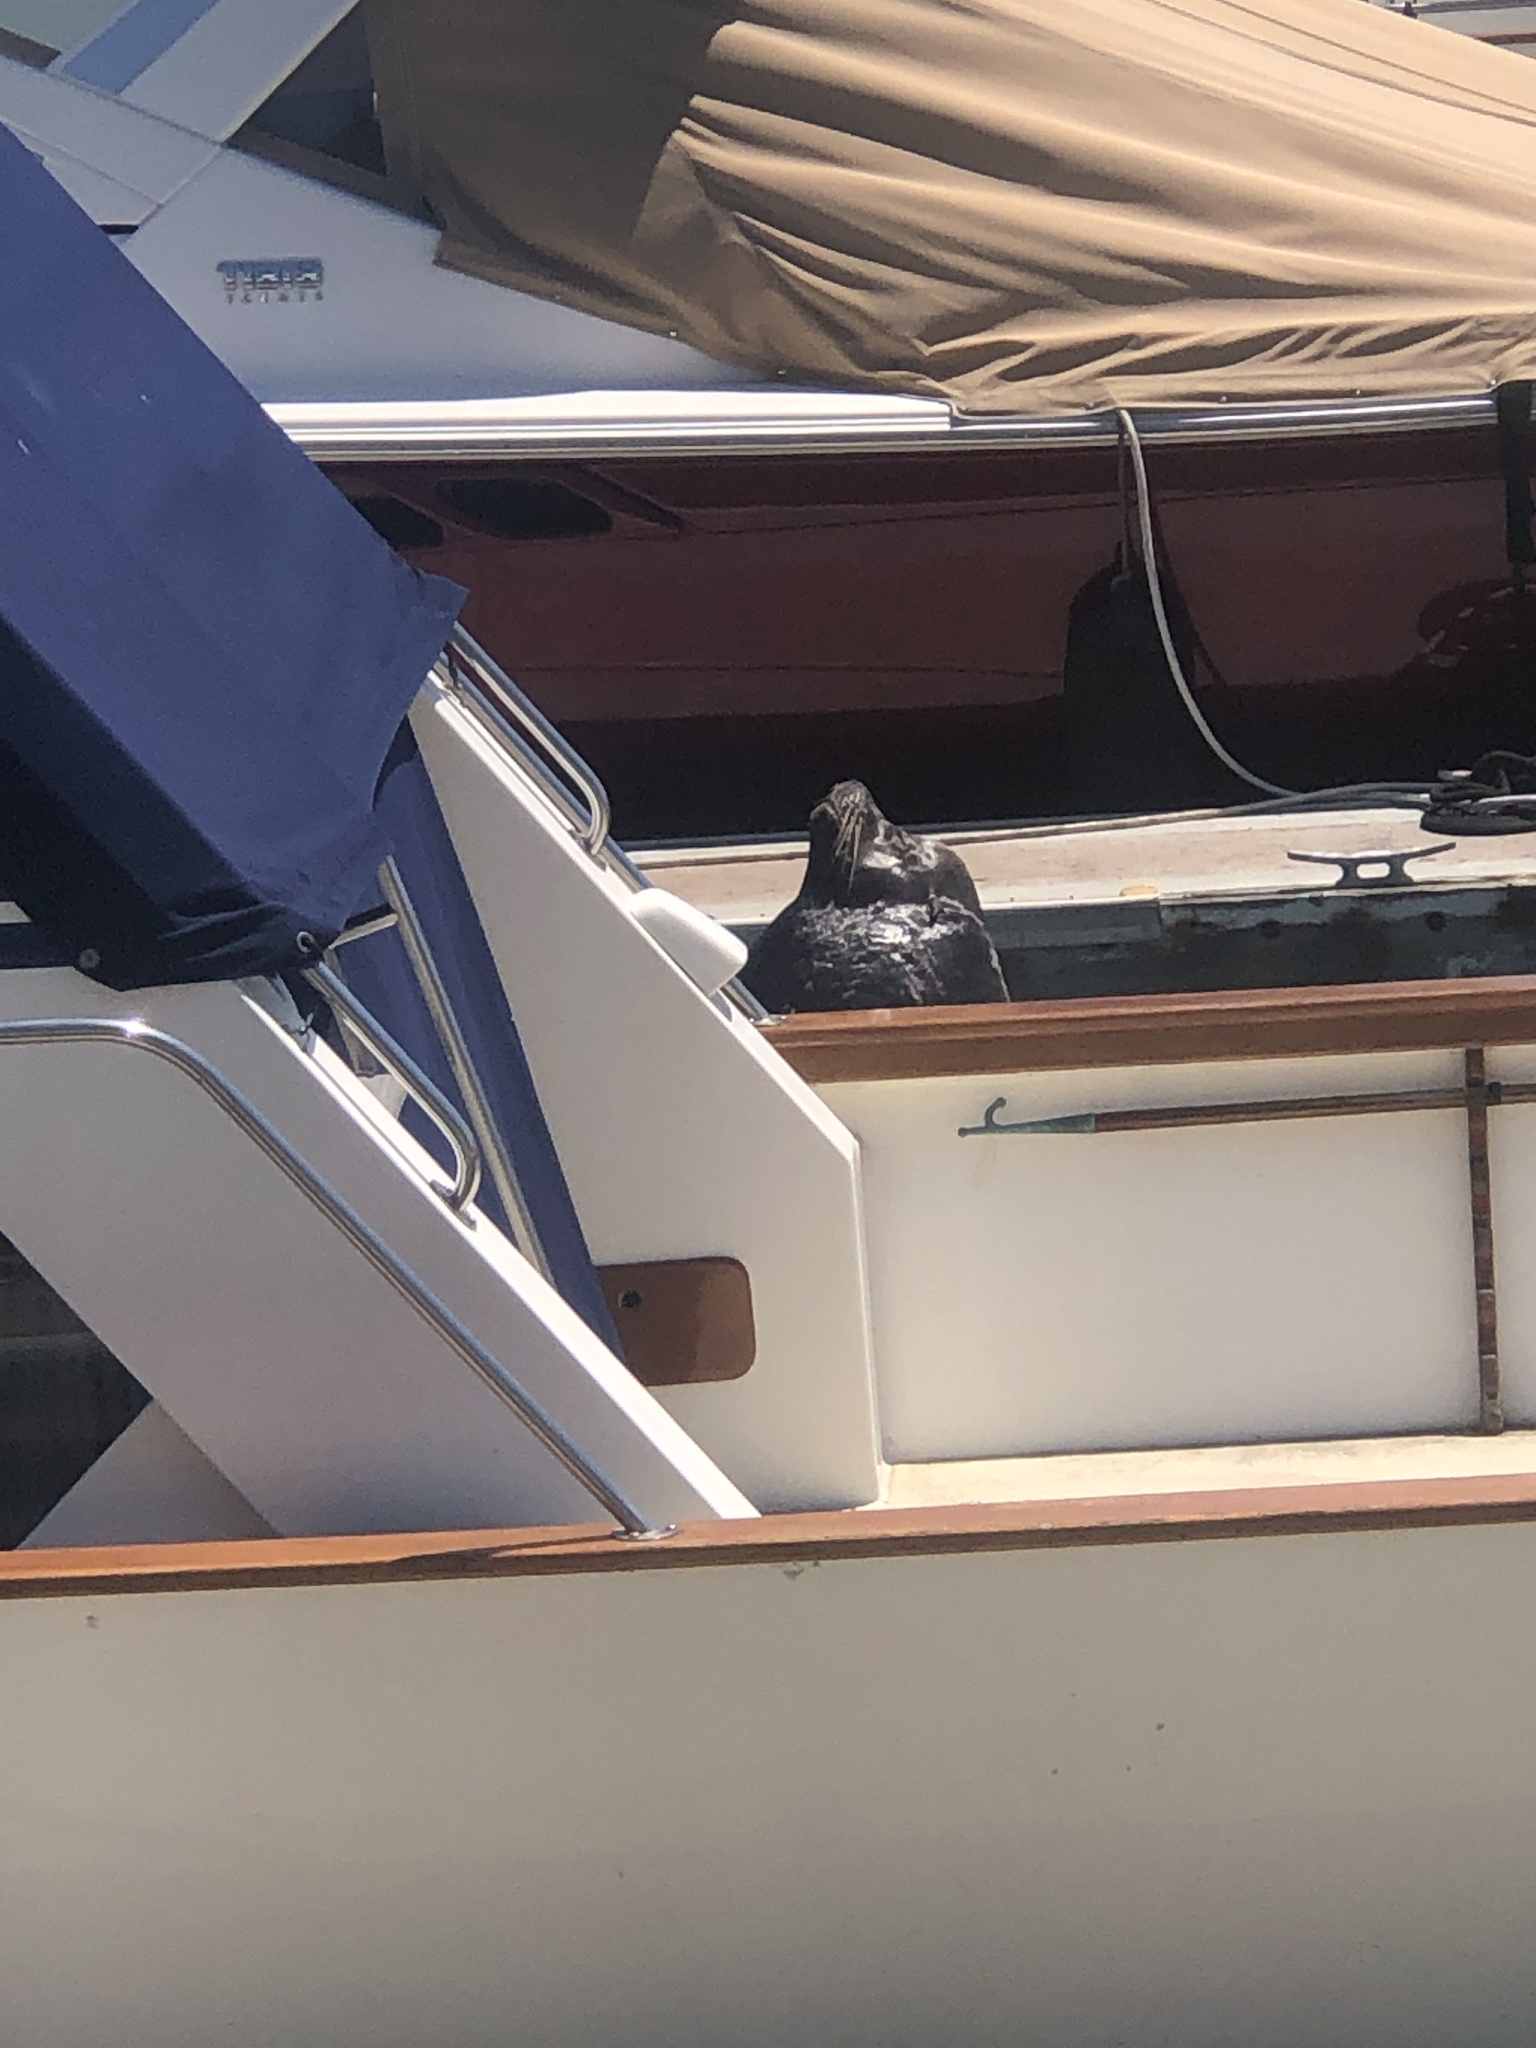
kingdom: Animalia
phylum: Chordata
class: Mammalia
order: Carnivora
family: Otariidae
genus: Zalophus
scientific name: Zalophus californianus
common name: California sea lion
